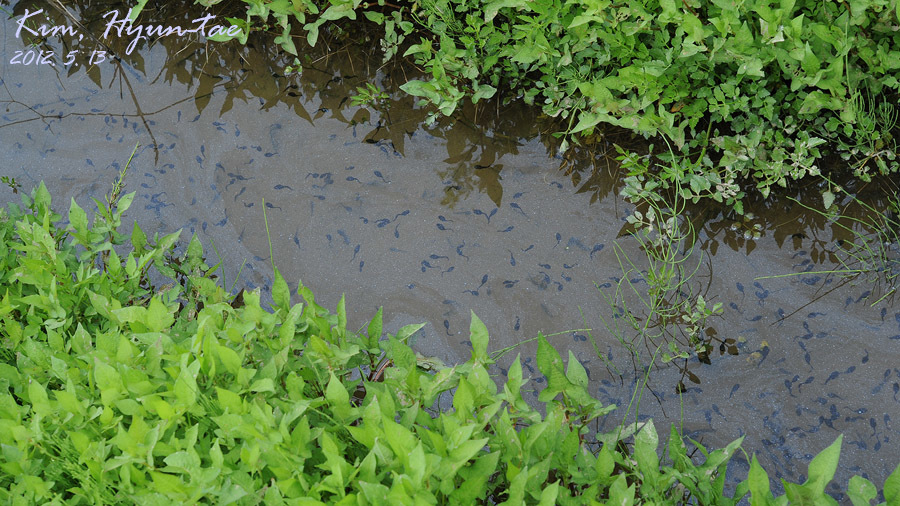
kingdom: Animalia
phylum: Chordata
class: Amphibia
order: Anura
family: Bufonidae
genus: Bufo
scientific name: Bufo gargarizans
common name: Asiatic toad
